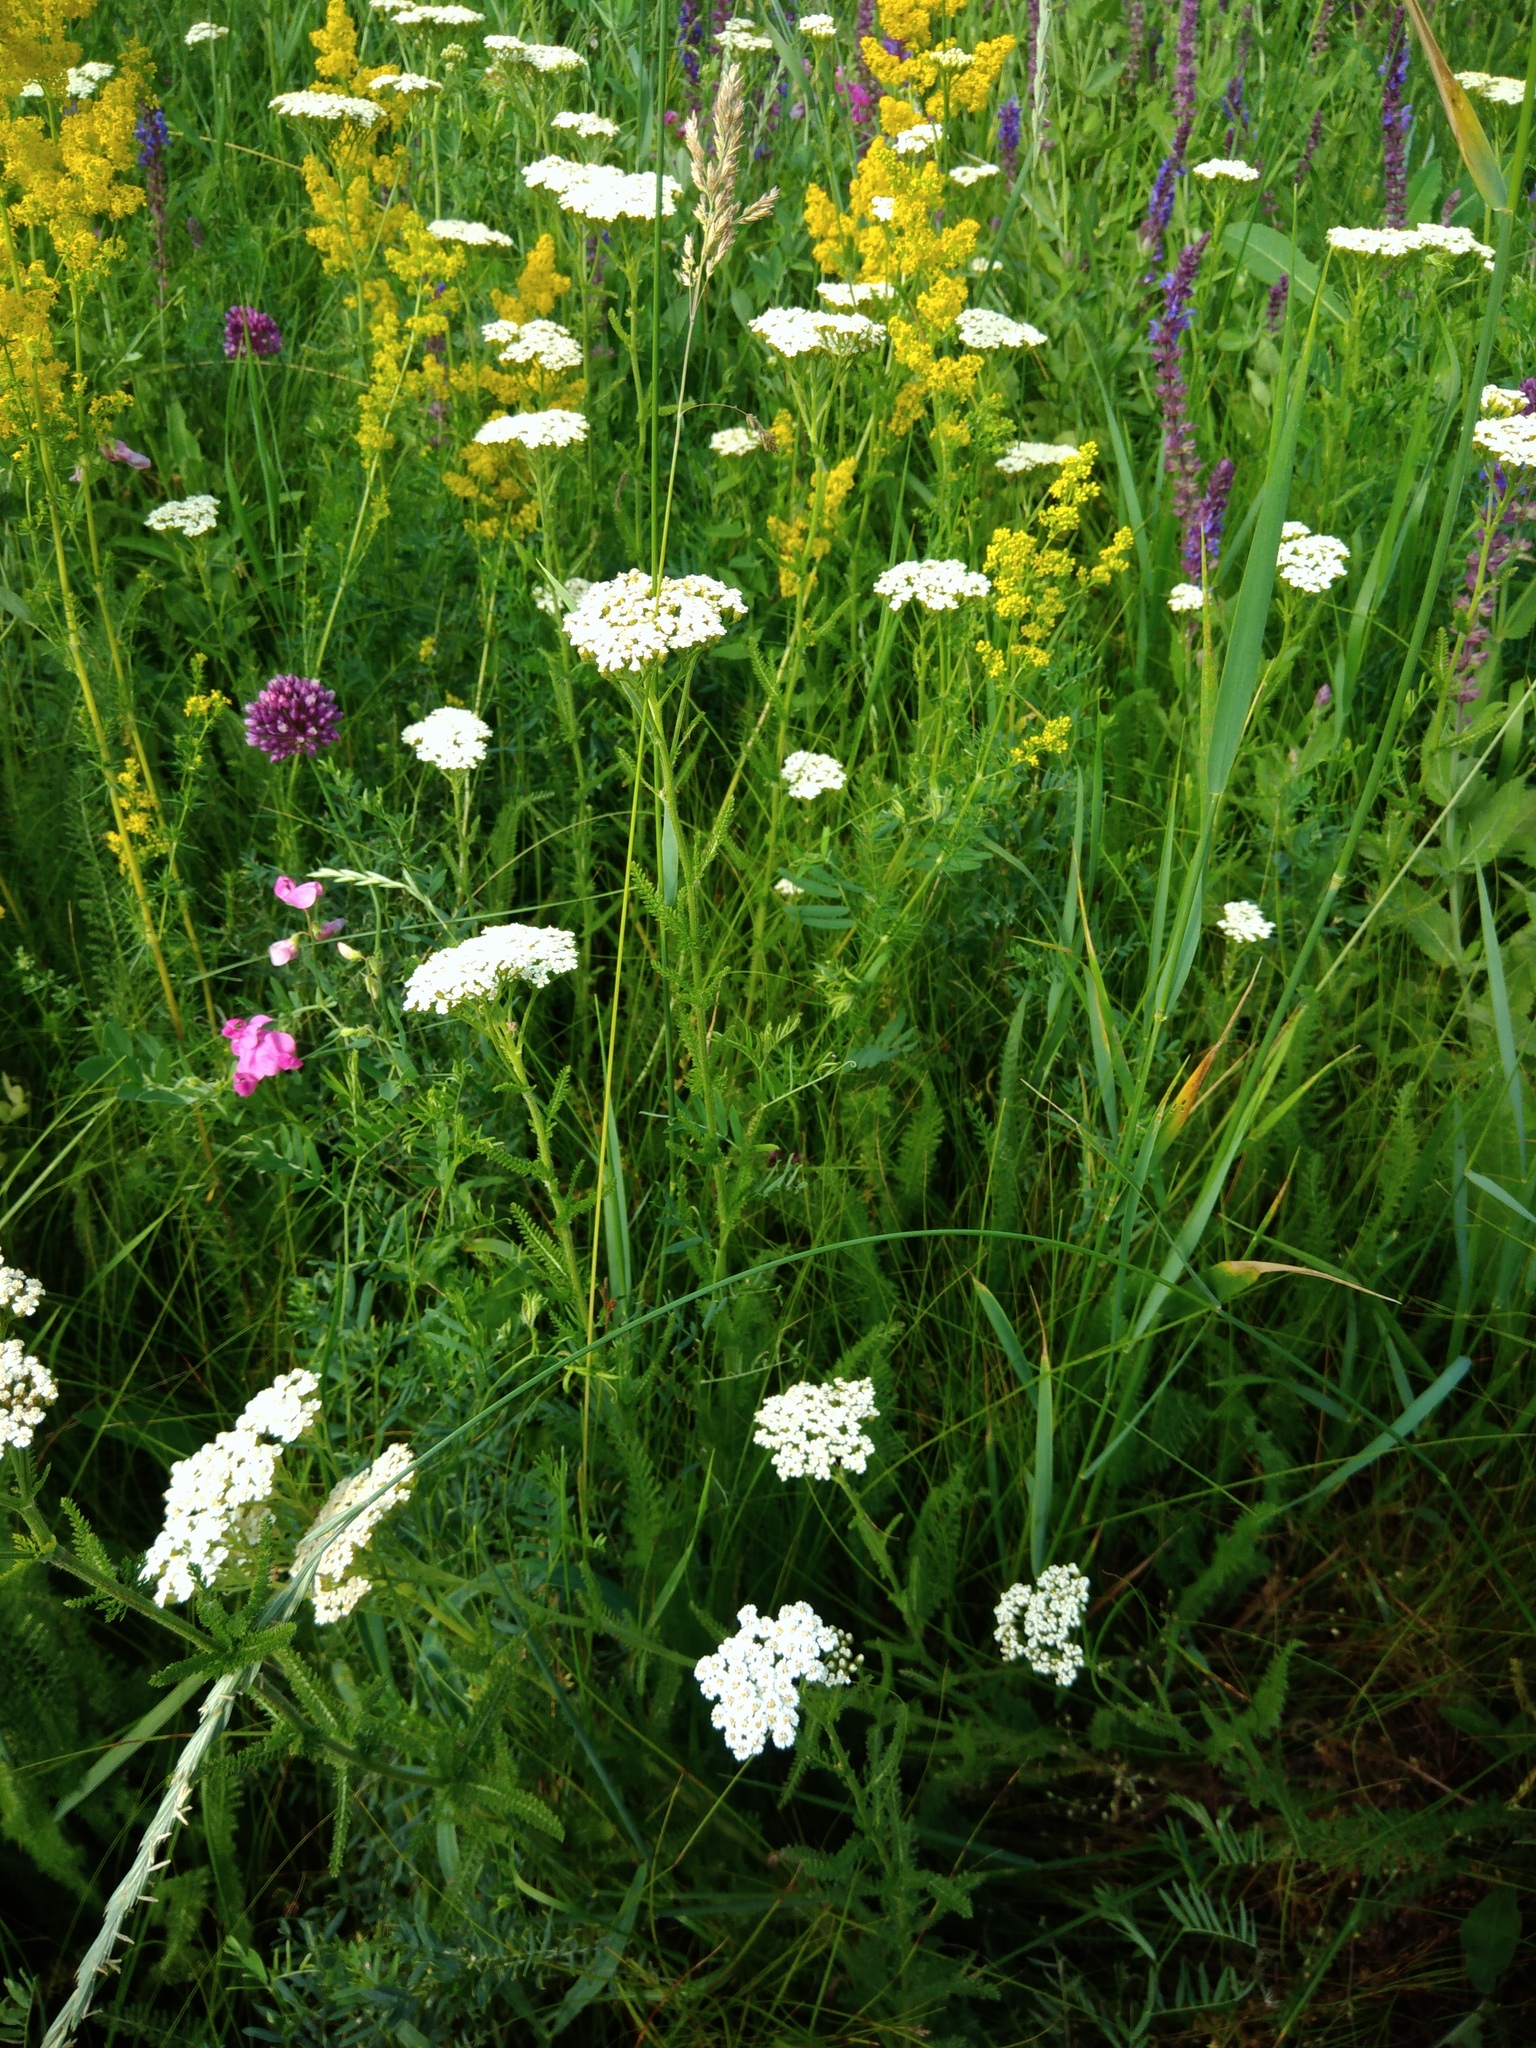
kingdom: Plantae
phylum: Tracheophyta
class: Magnoliopsida
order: Asterales
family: Asteraceae
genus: Achillea
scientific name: Achillea millefolium
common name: Yarrow
